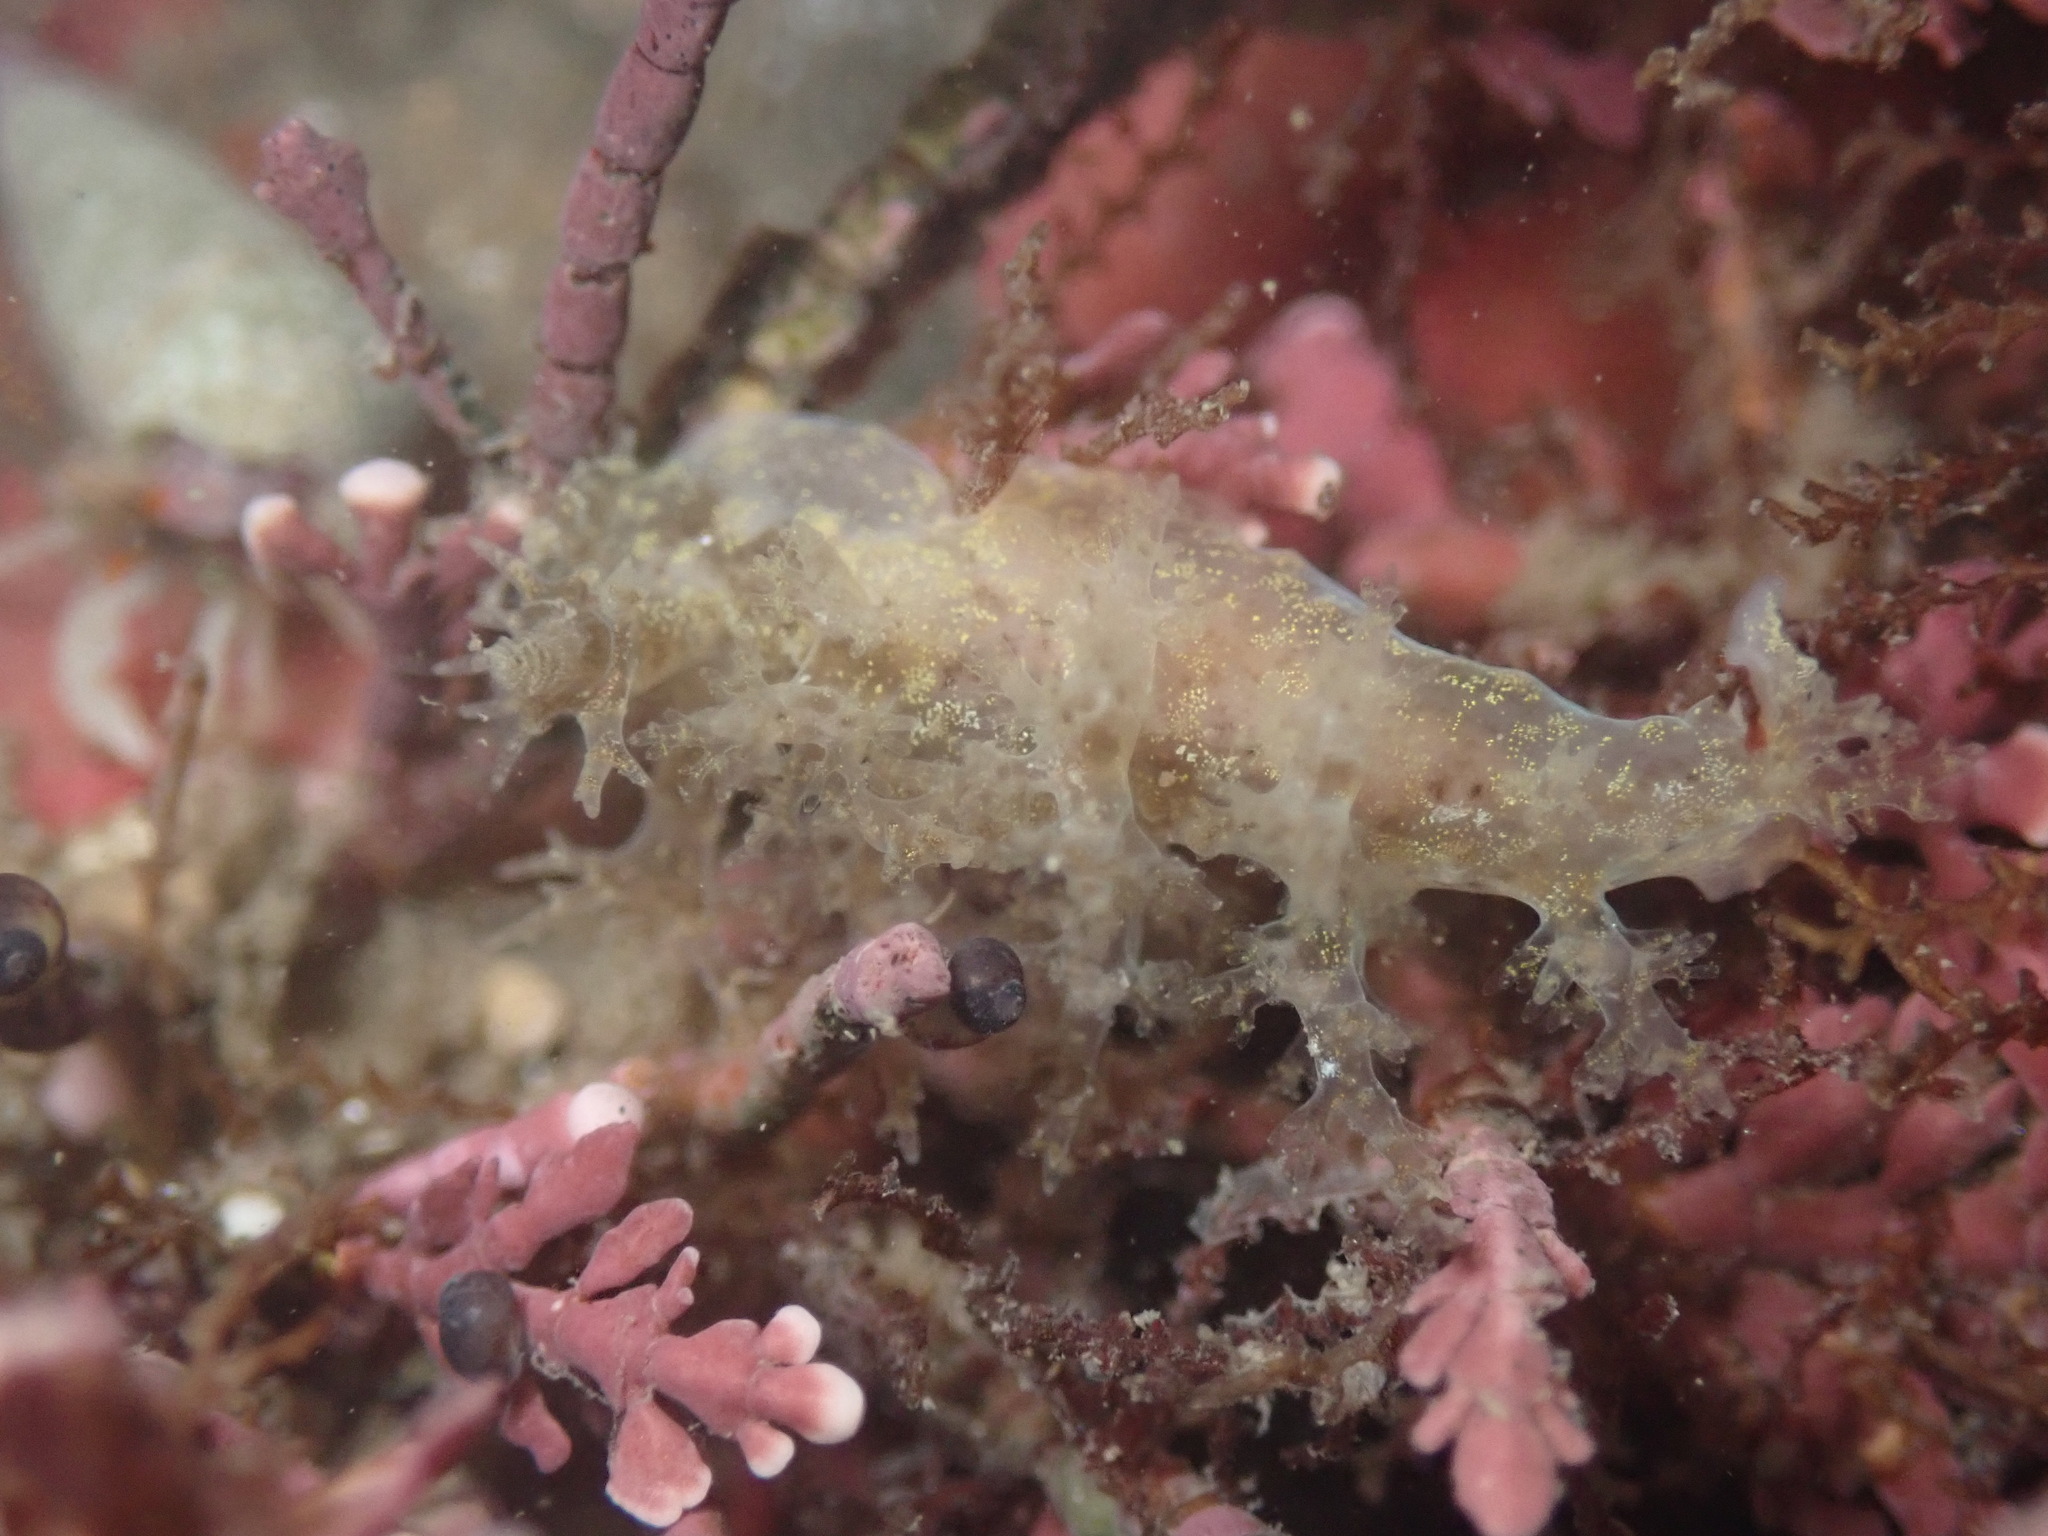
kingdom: Animalia
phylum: Mollusca
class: Gastropoda
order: Nudibranchia
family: Dendronotidae
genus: Dendronotus
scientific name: Dendronotus venustus
